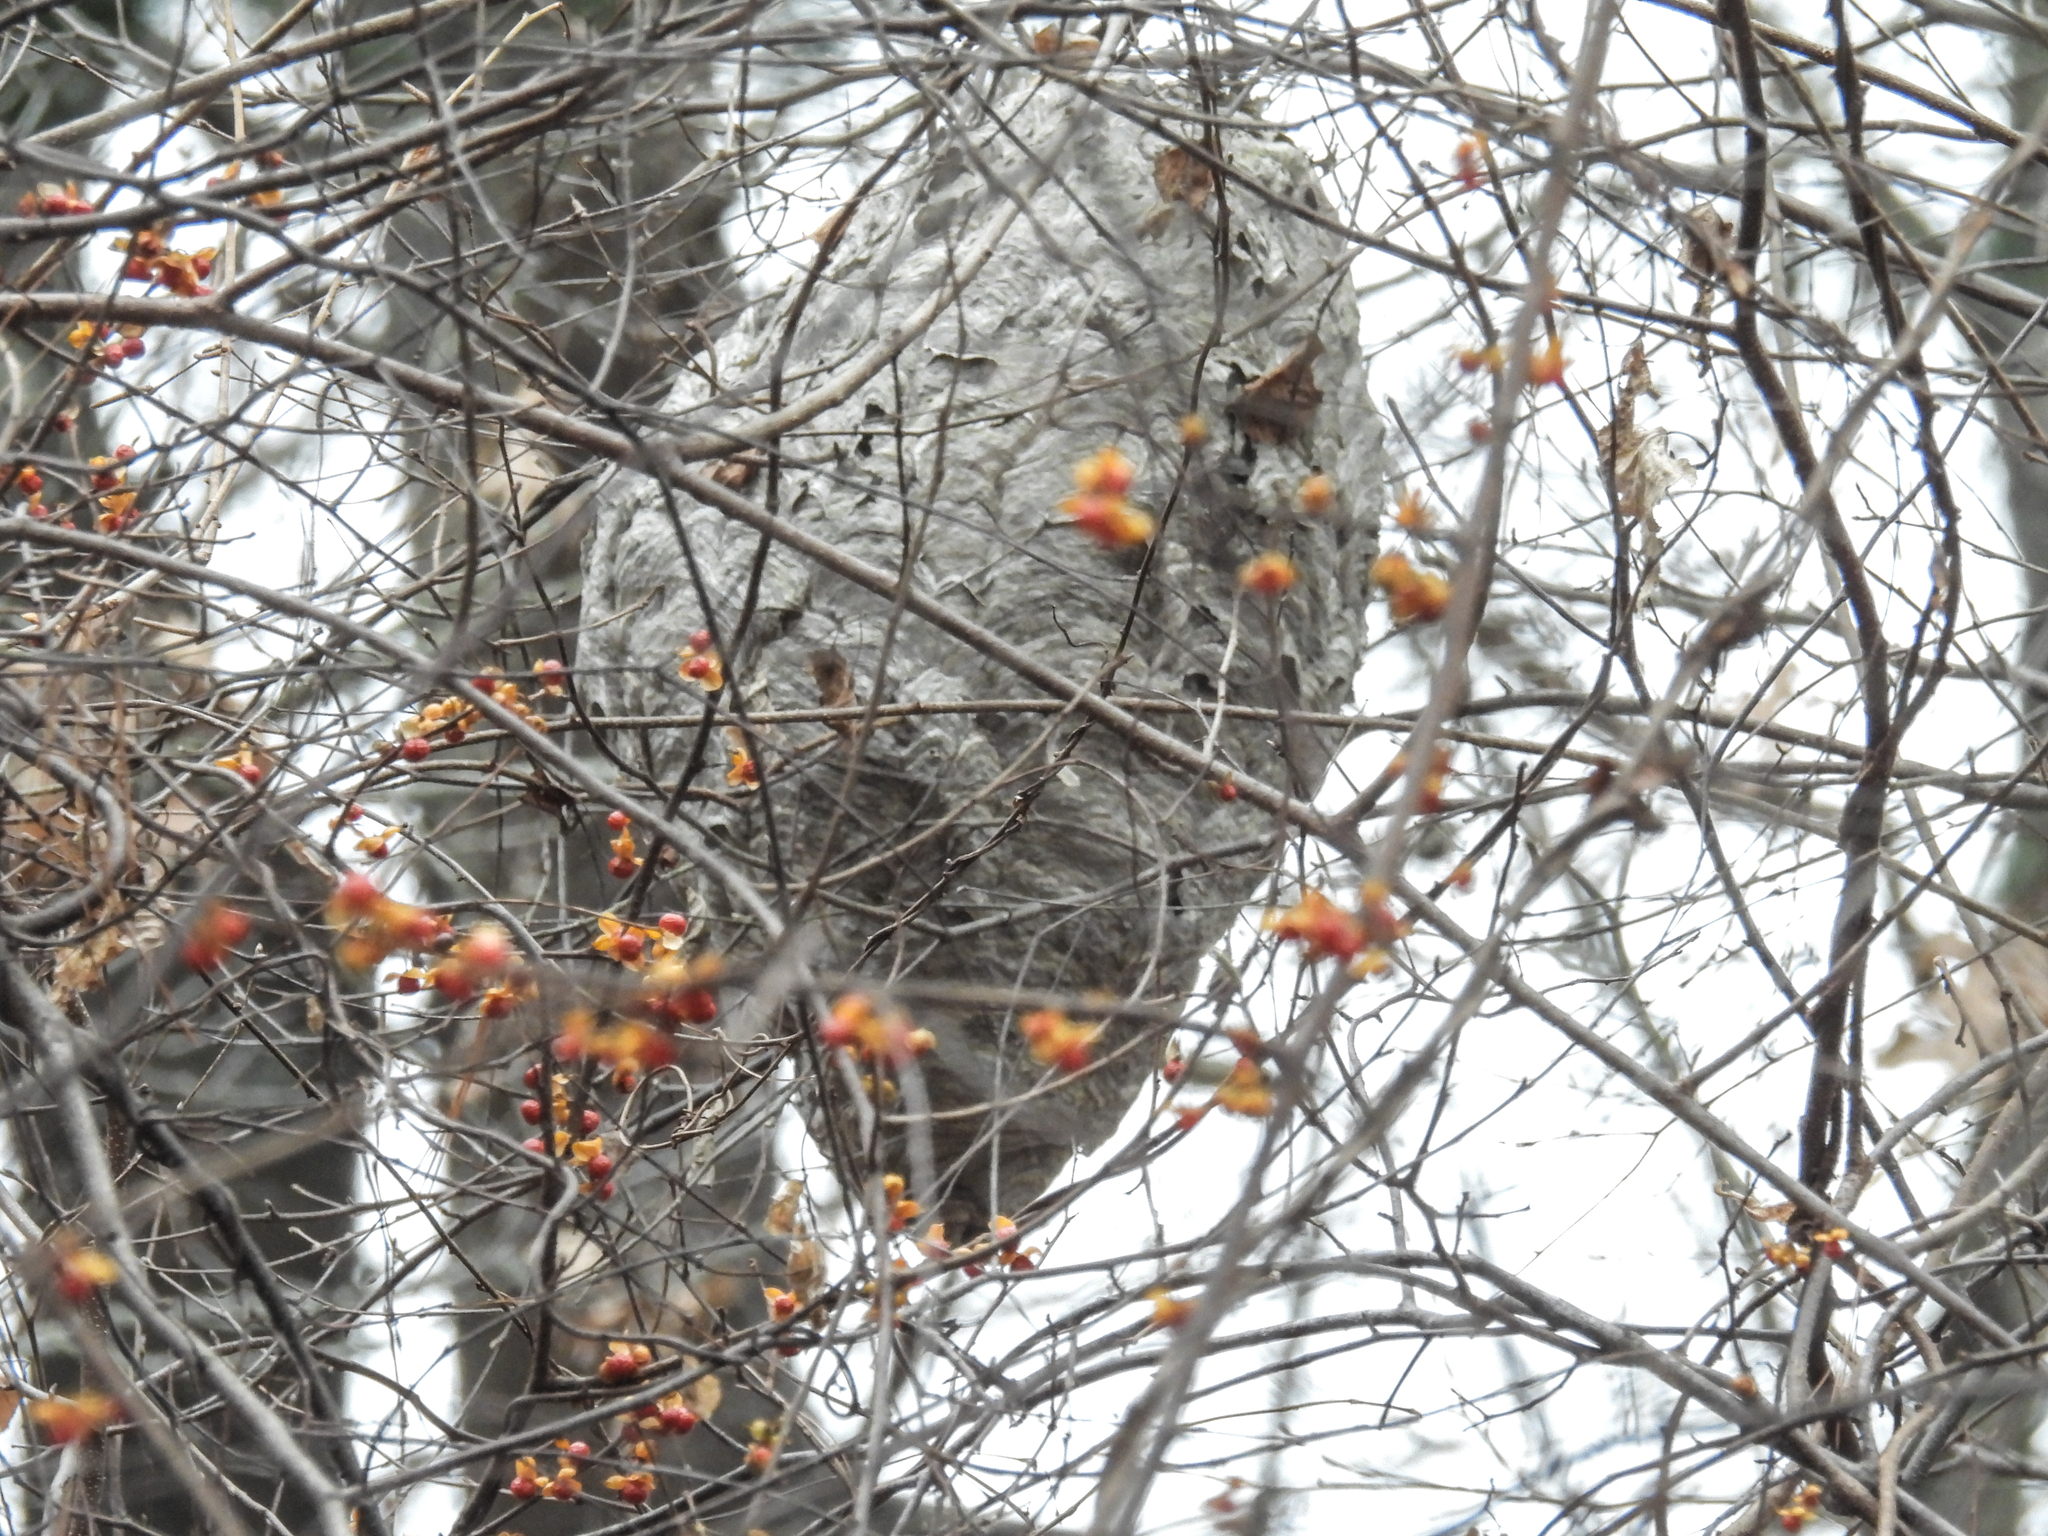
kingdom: Animalia
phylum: Arthropoda
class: Insecta
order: Hymenoptera
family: Vespidae
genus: Dolichovespula
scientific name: Dolichovespula
